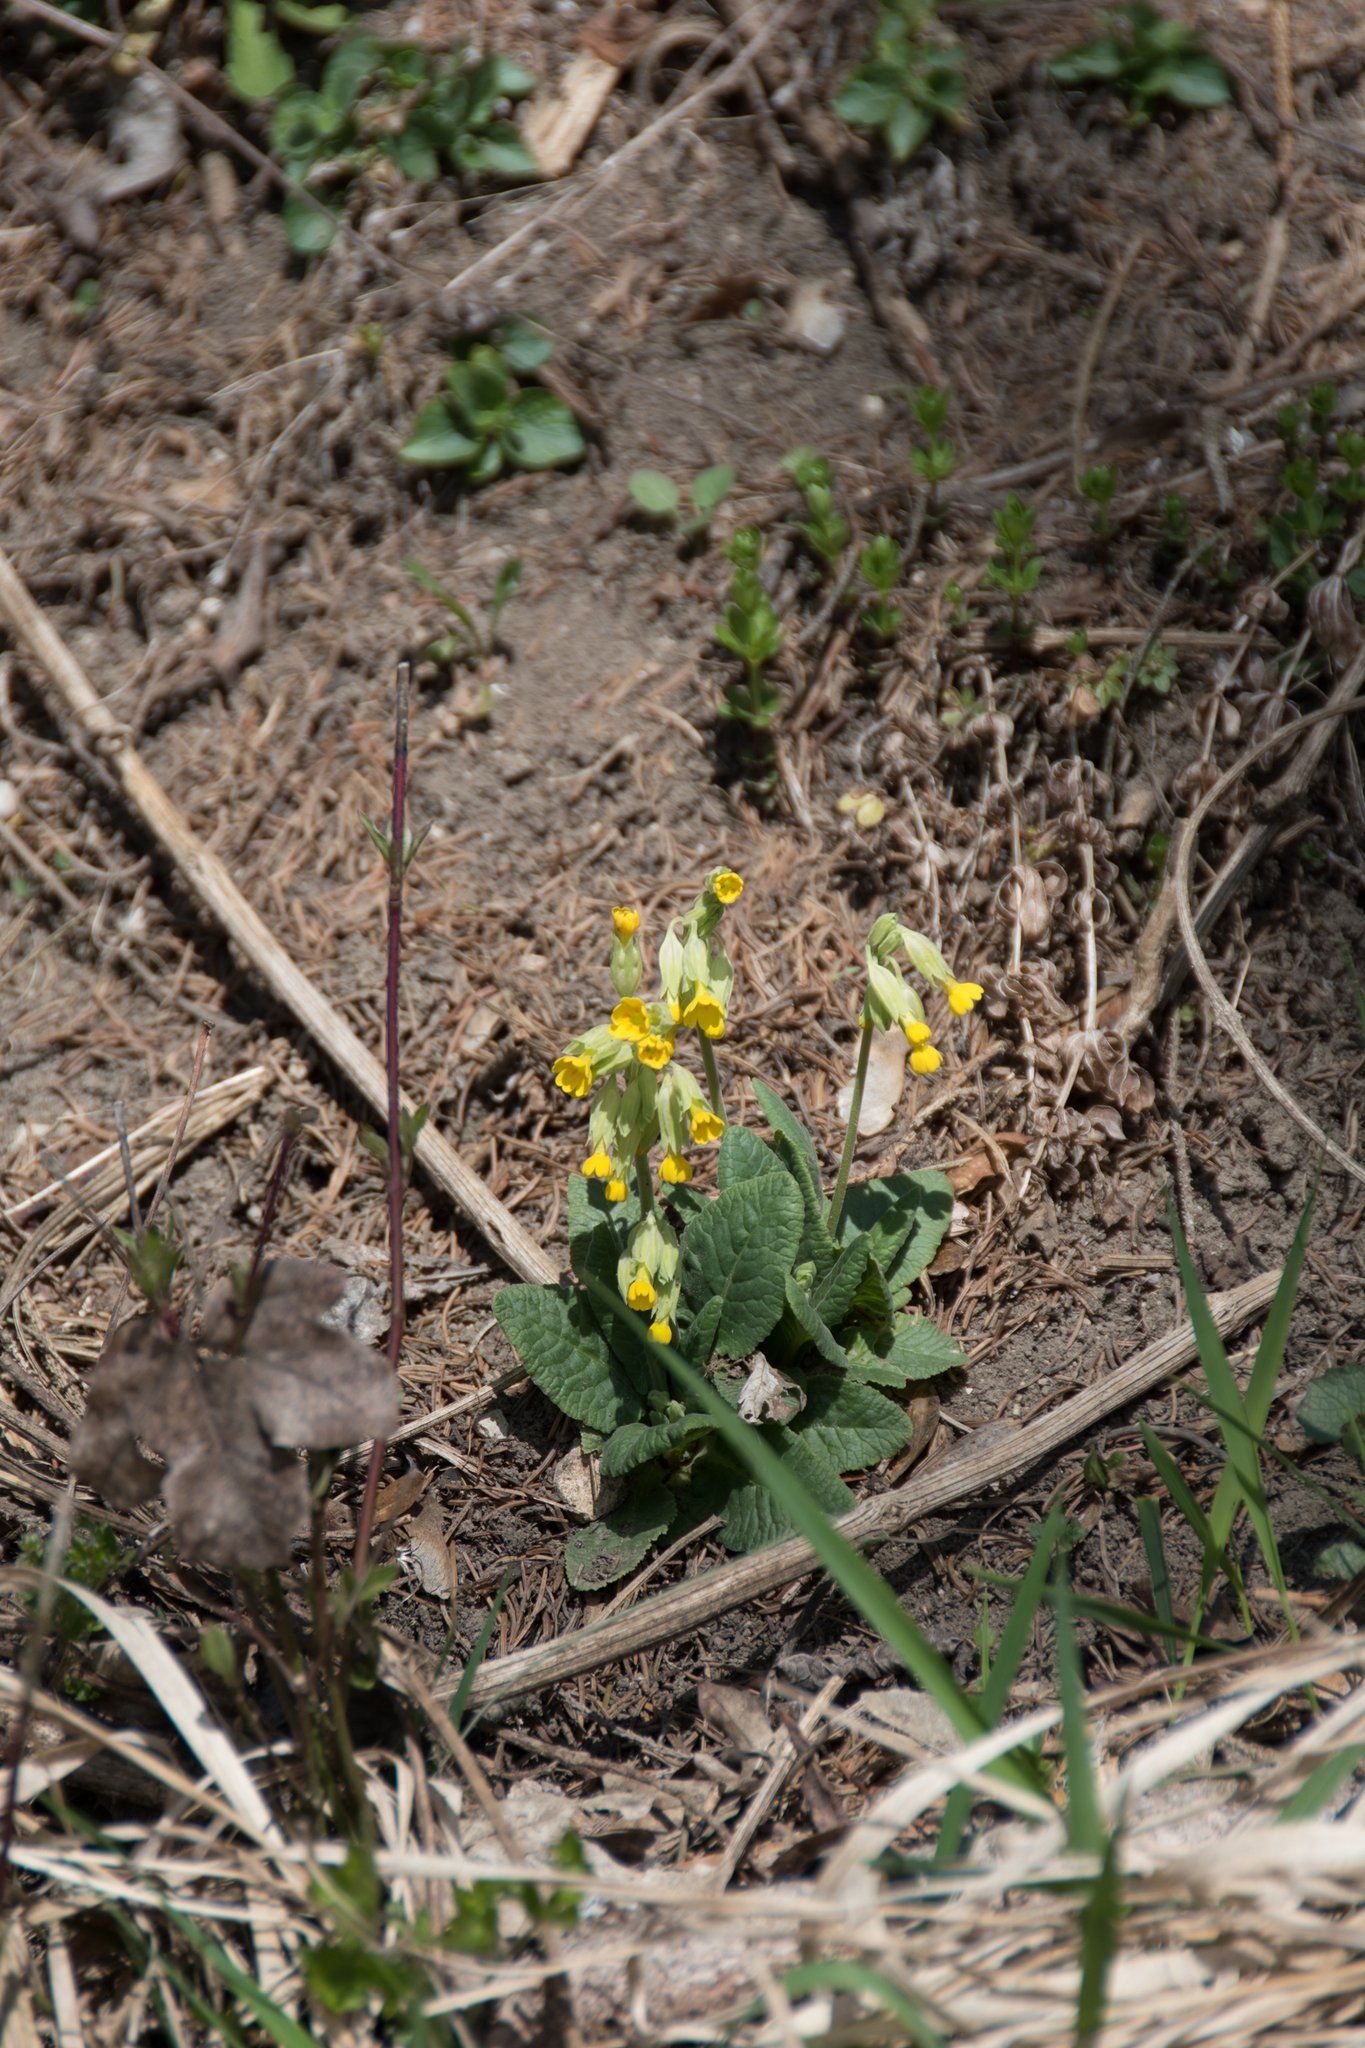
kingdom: Plantae
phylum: Tracheophyta
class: Magnoliopsida
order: Ericales
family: Primulaceae
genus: Primula
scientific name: Primula veris
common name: Cowslip
